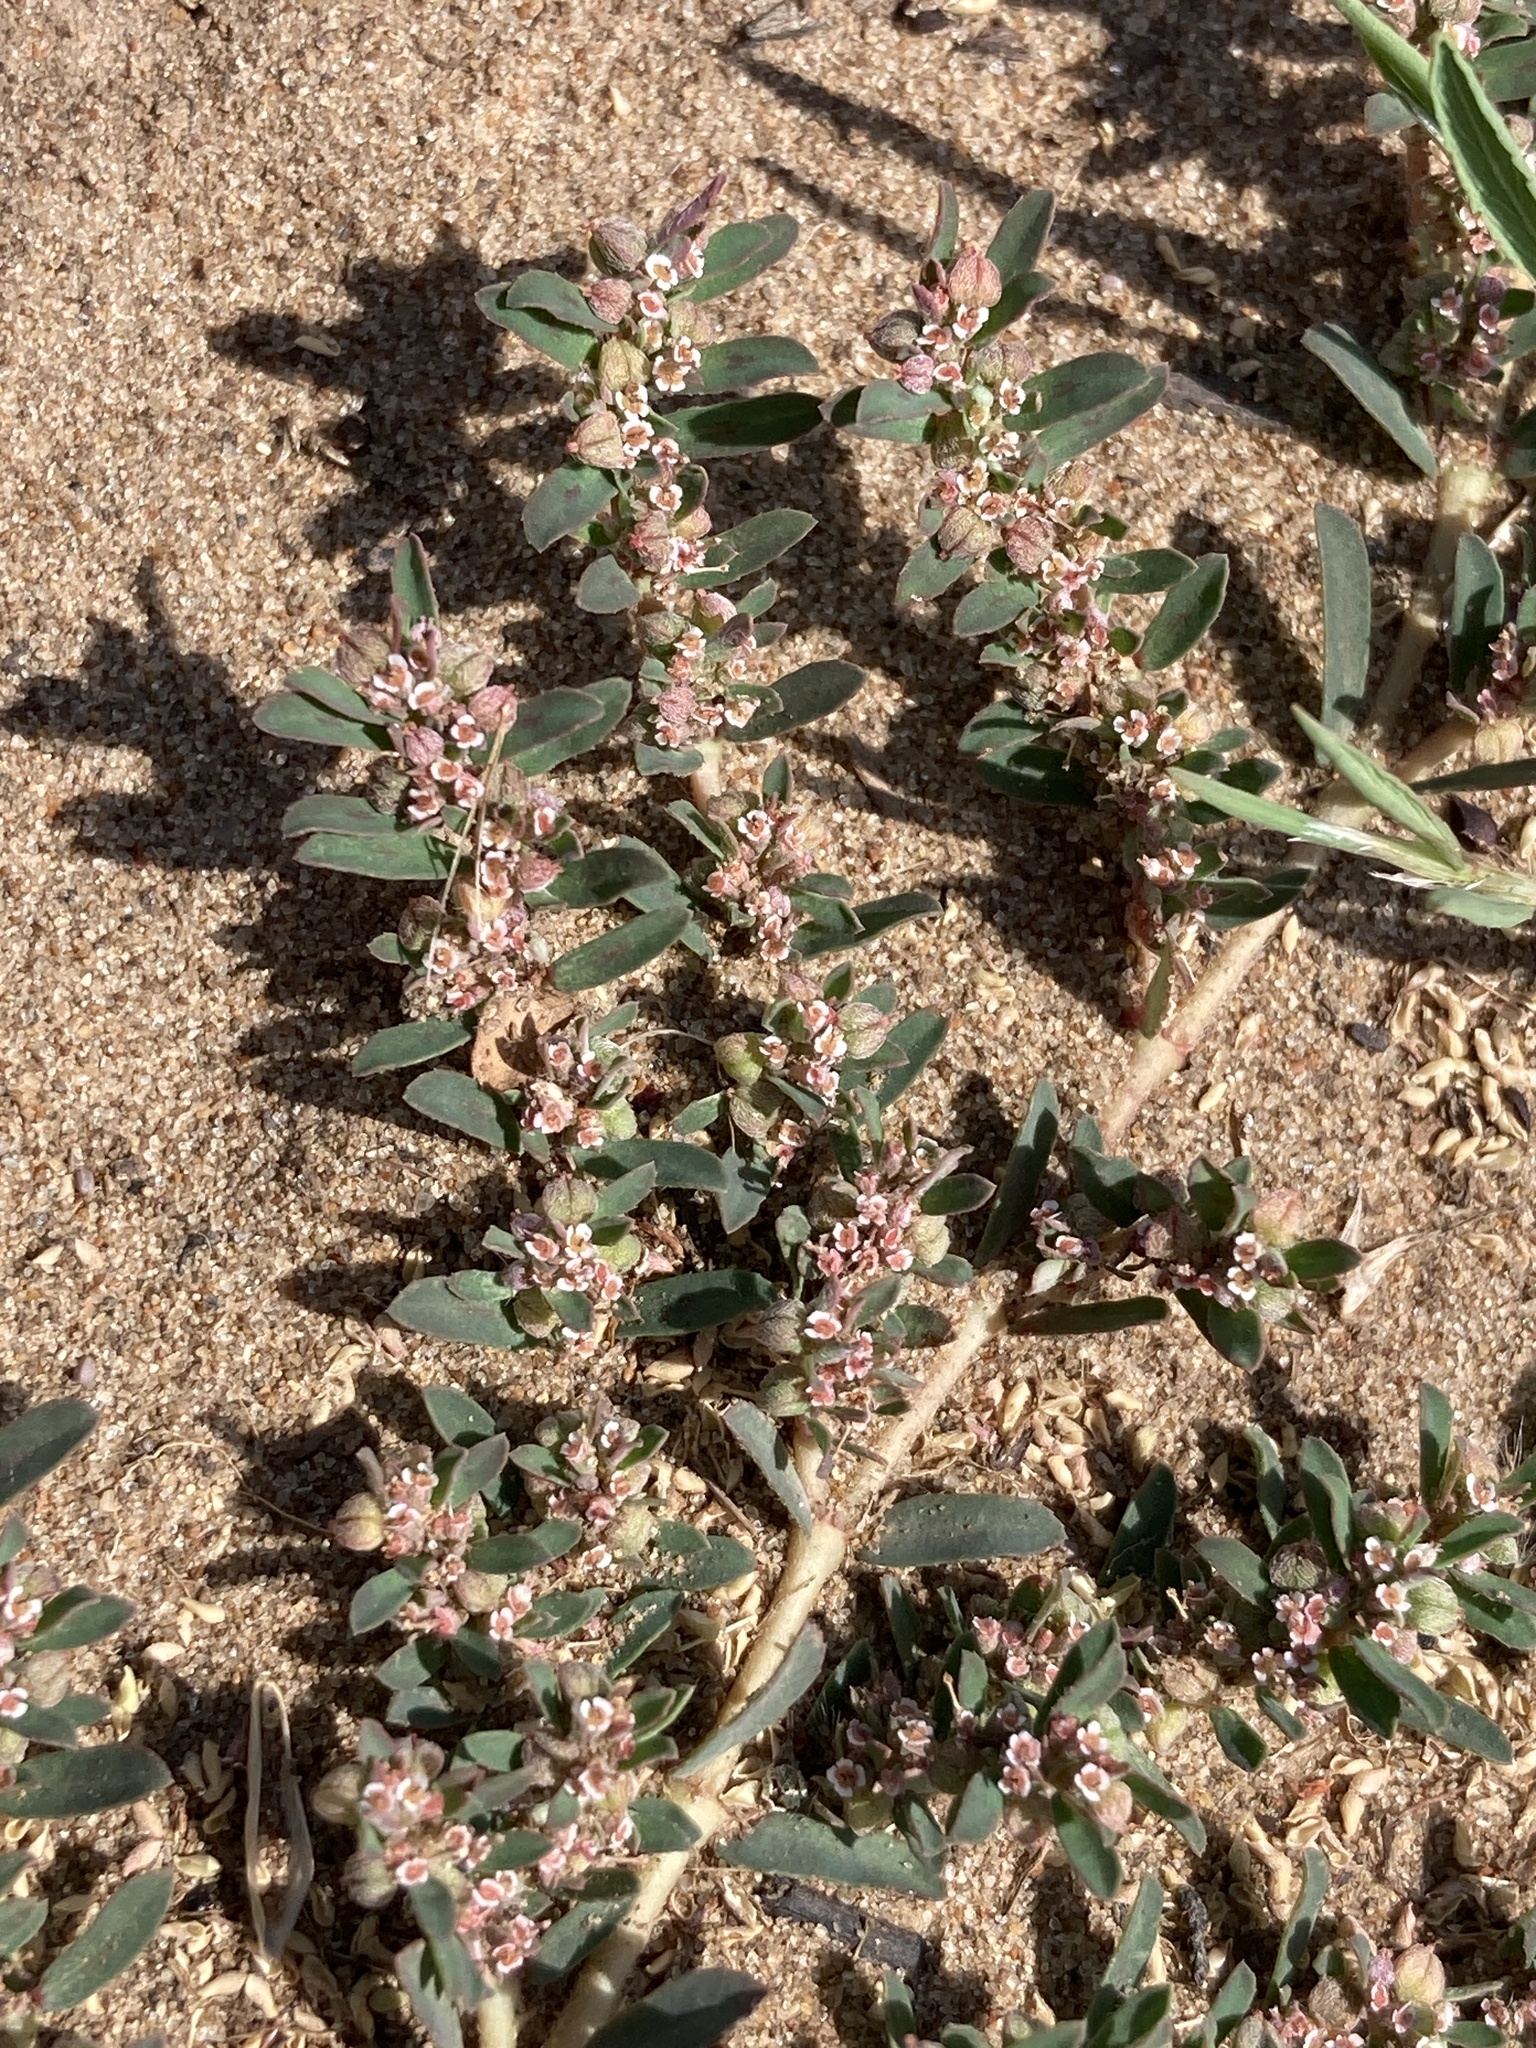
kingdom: Plantae
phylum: Tracheophyta
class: Magnoliopsida
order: Malpighiales
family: Euphorbiaceae
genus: Euphorbia
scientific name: Euphorbia maculata
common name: Spotted spurge
